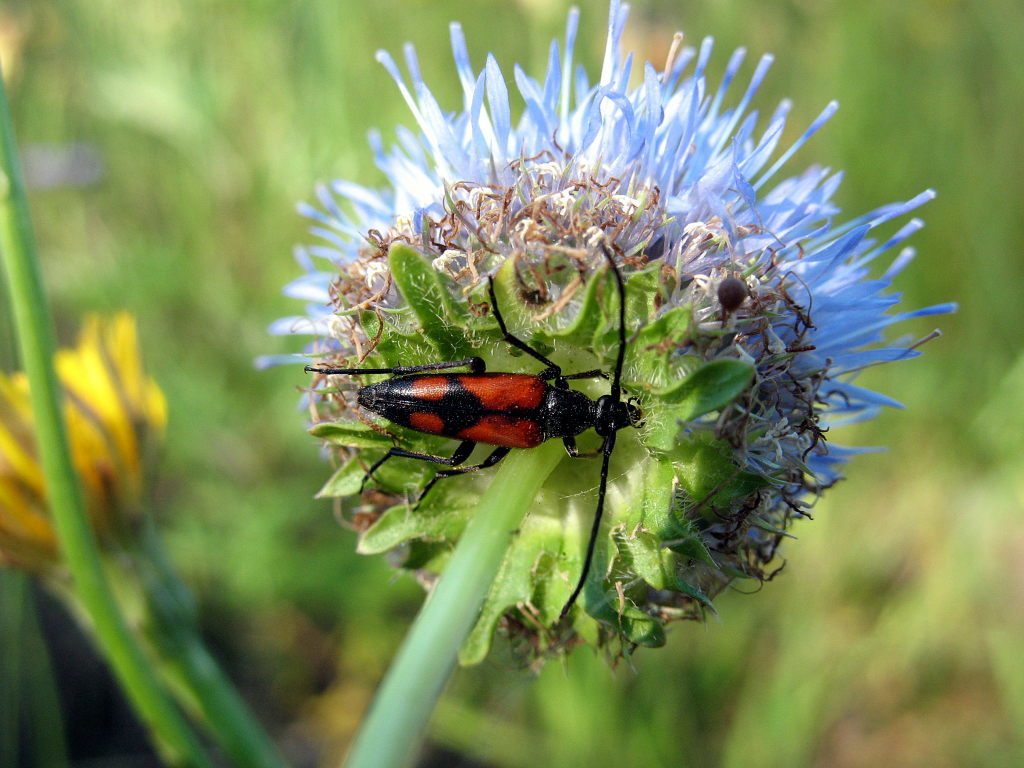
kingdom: Animalia
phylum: Arthropoda
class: Insecta
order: Coleoptera
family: Cerambycidae
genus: Stenurella
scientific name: Stenurella bifasciata
